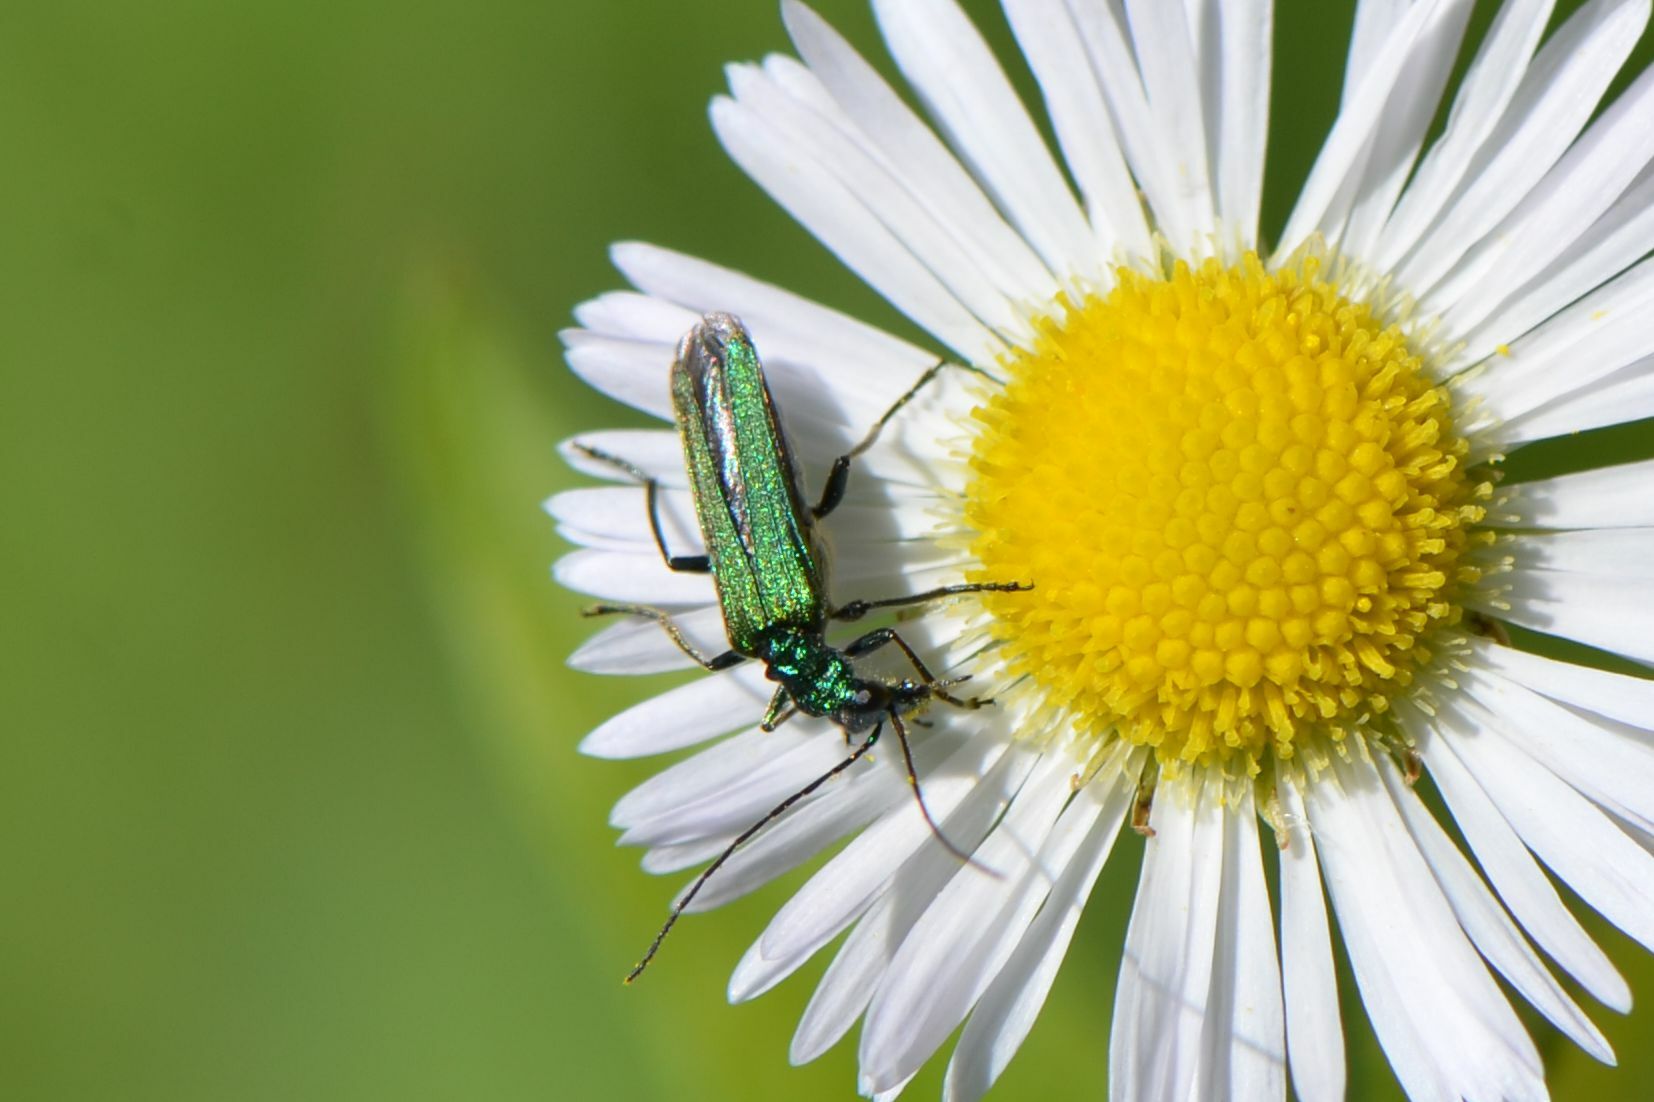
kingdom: Animalia
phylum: Arthropoda
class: Insecta
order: Coleoptera
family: Oedemeridae
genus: Oedemera
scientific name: Oedemera nobilis
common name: Swollen-thighed beetle
